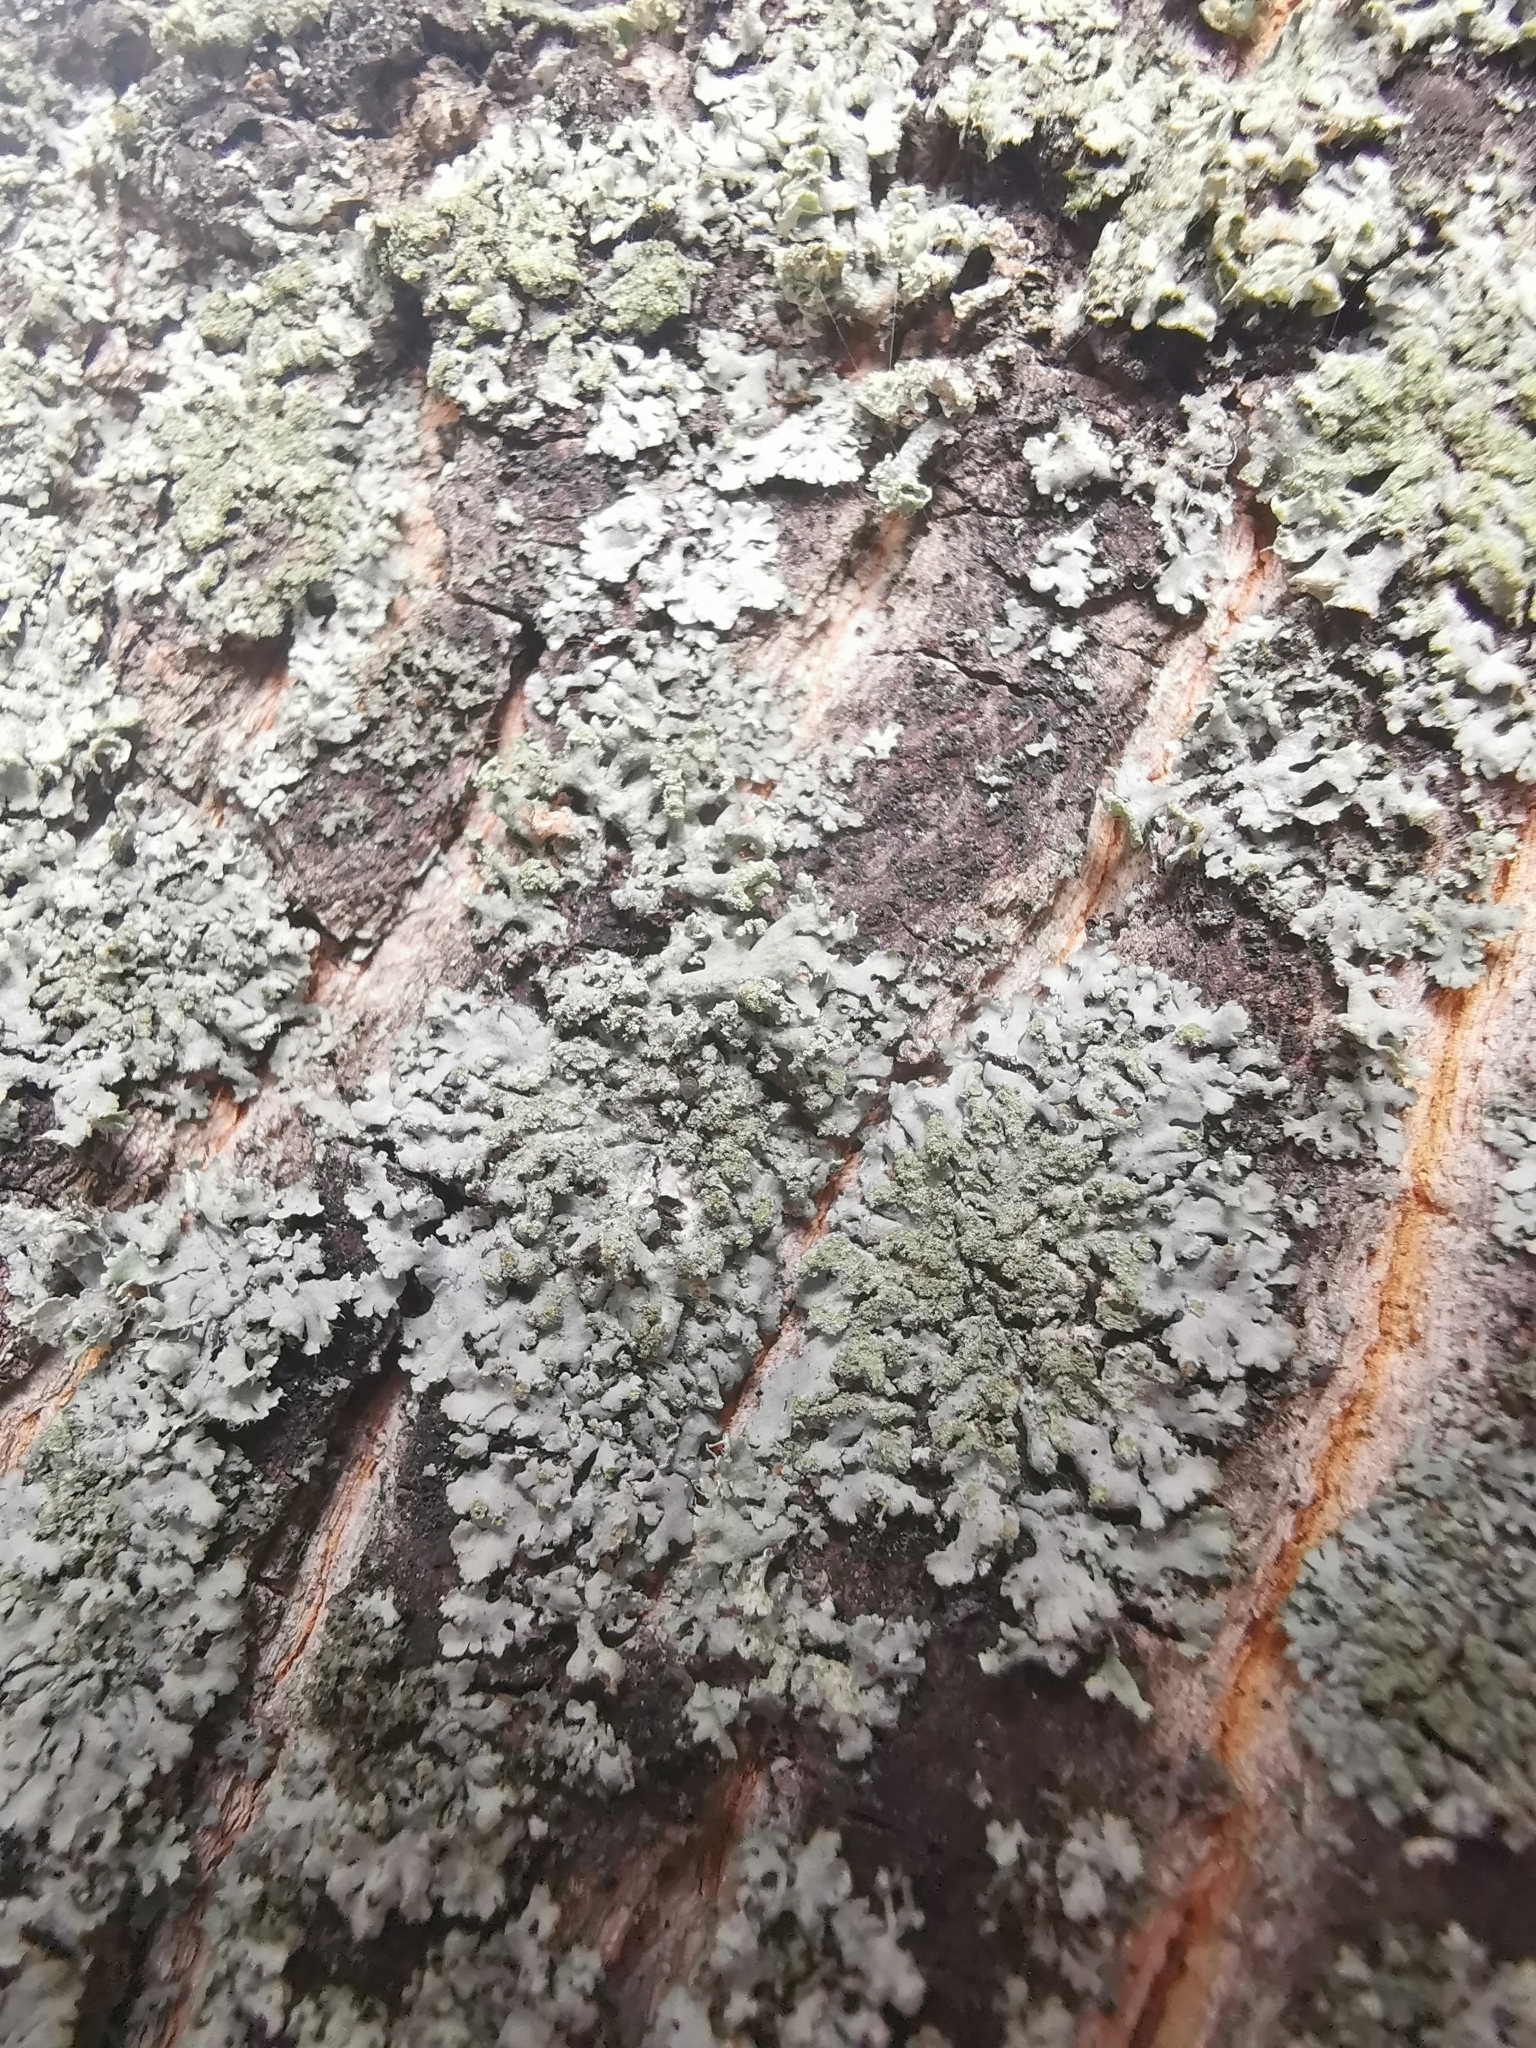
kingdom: Fungi
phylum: Ascomycota
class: Lecanoromycetes
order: Caliciales
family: Physciaceae
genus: Phaeophyscia
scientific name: Phaeophyscia orbicularis
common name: Mealy shadow lichen
